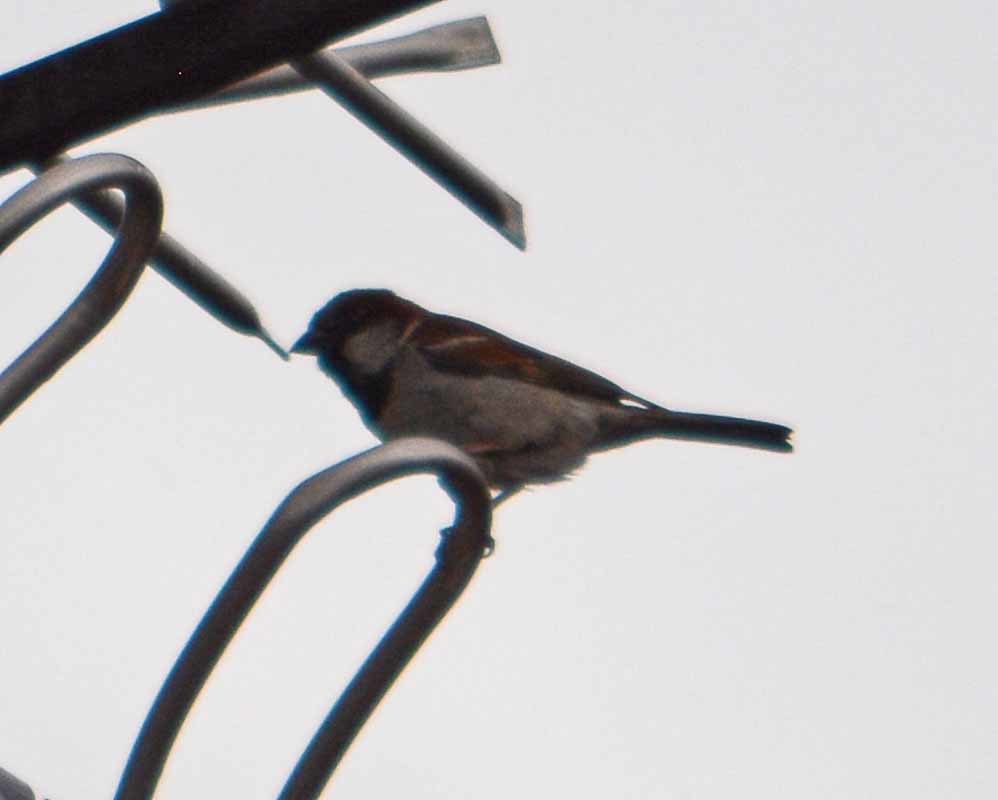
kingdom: Animalia
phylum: Chordata
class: Aves
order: Passeriformes
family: Passeridae
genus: Passer
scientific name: Passer domesticus
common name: House sparrow
